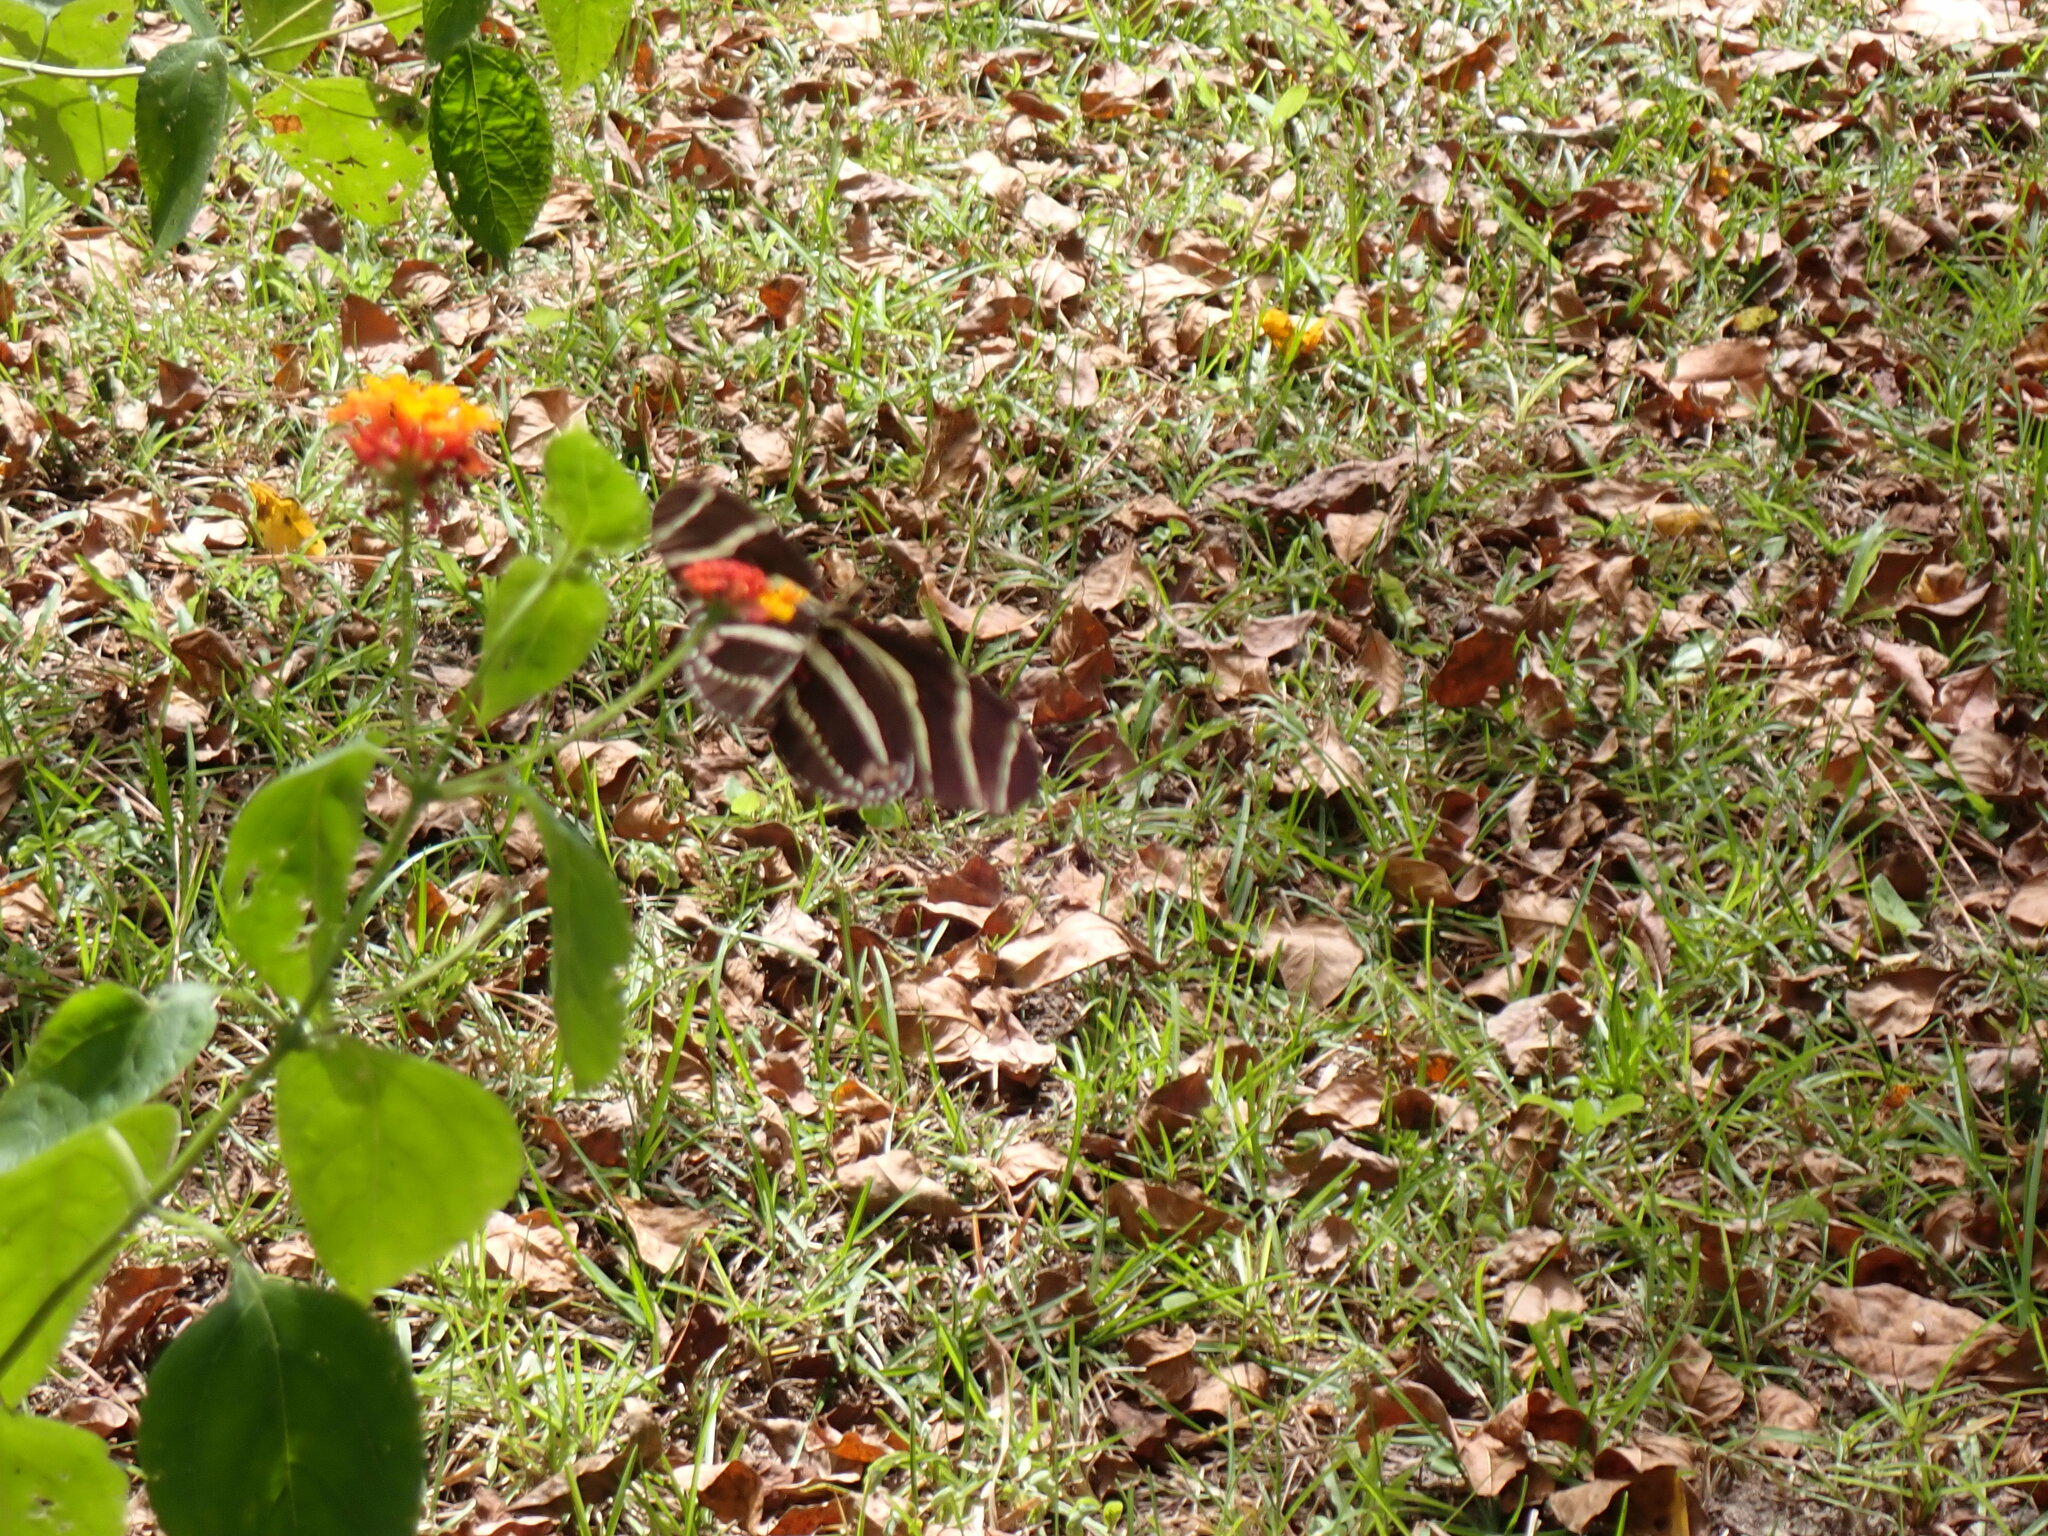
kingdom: Animalia
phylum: Arthropoda
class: Insecta
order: Lepidoptera
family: Nymphalidae
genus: Heliconius
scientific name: Heliconius charithonia
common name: Zebra long wing
